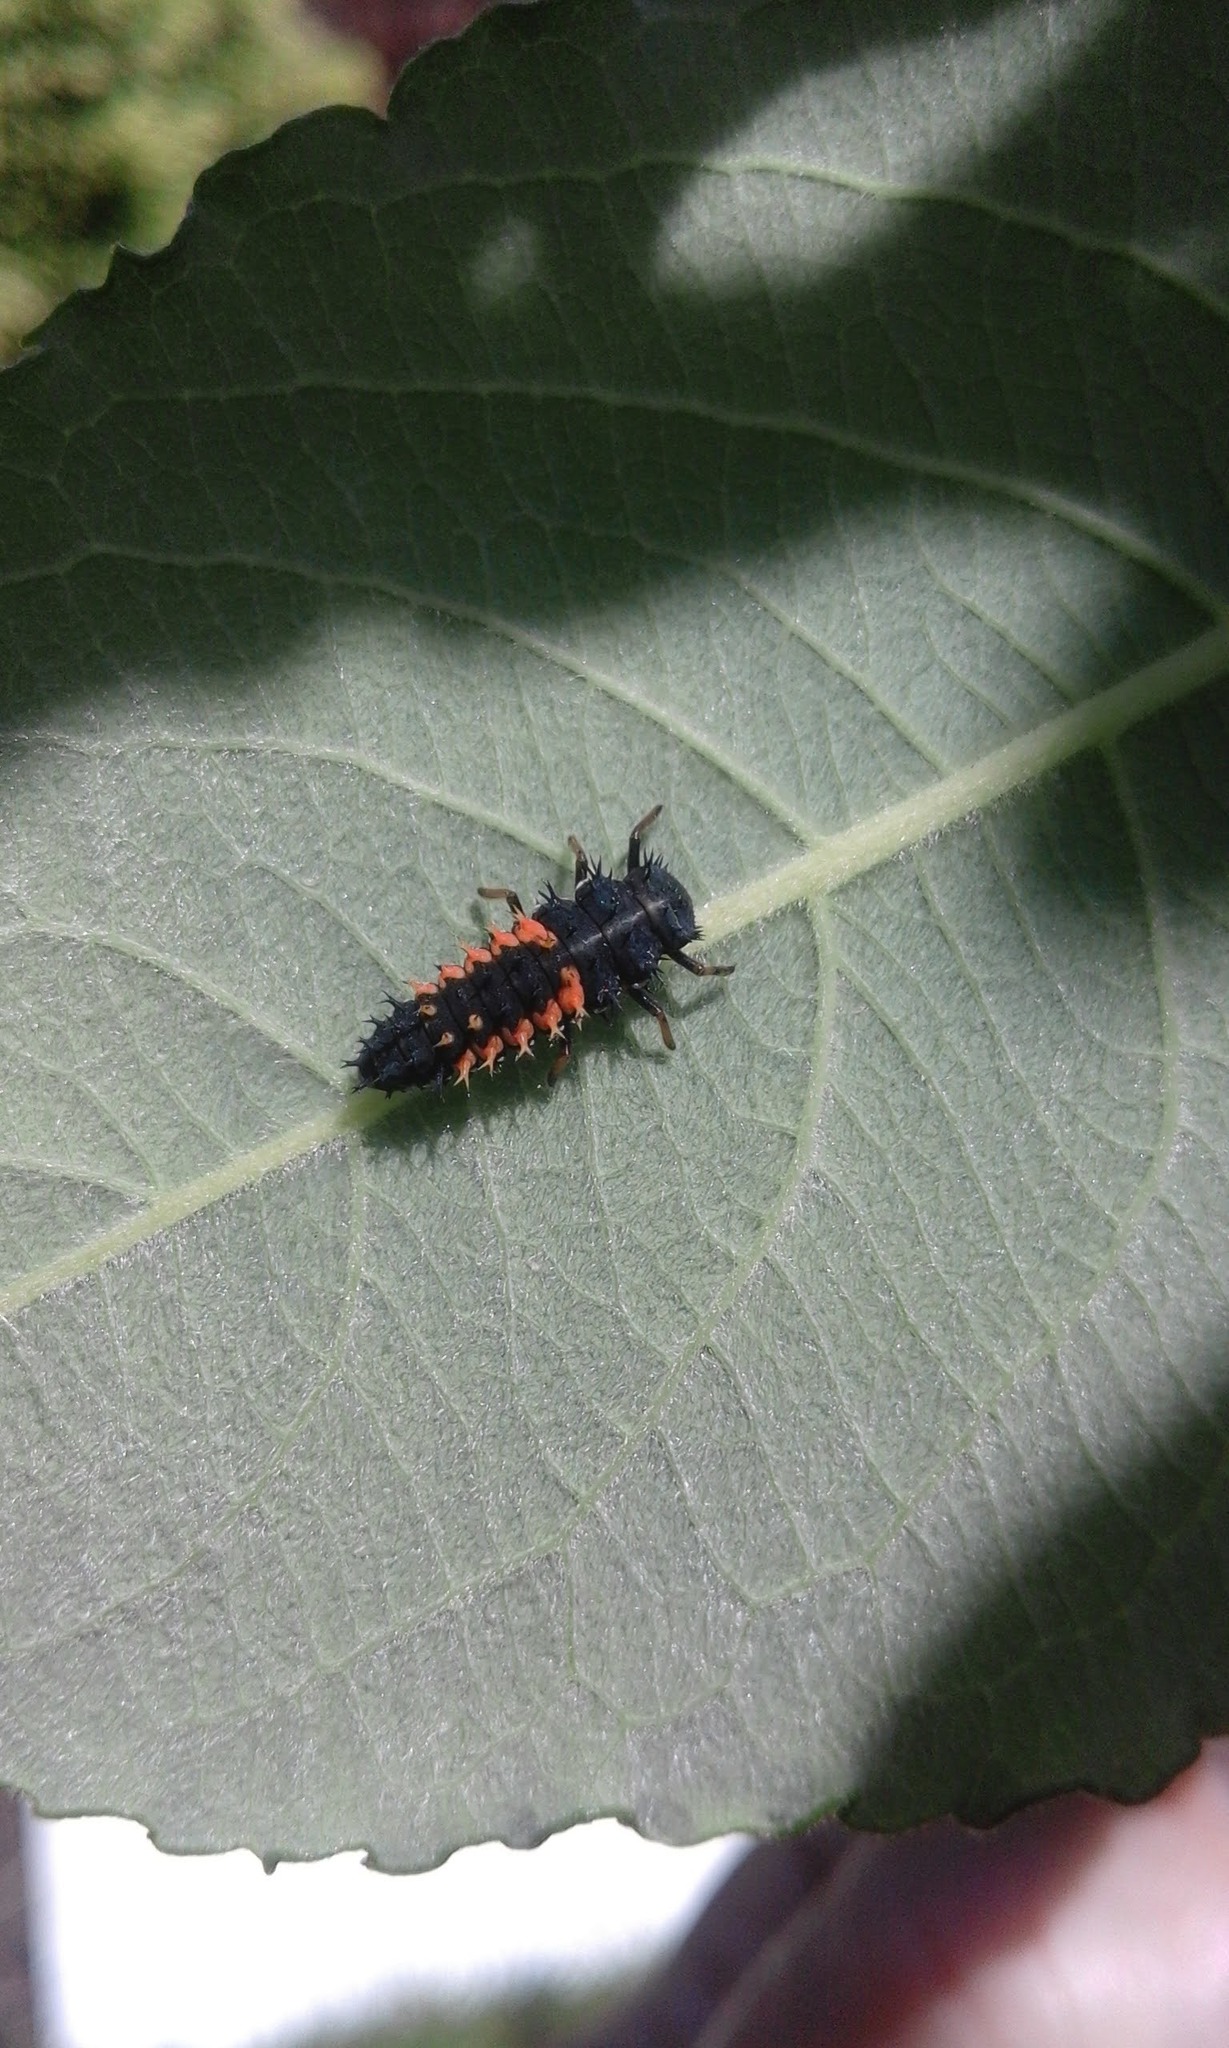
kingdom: Animalia
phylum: Arthropoda
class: Insecta
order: Coleoptera
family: Coccinellidae
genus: Harmonia
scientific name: Harmonia axyridis
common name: Harlequin ladybird
